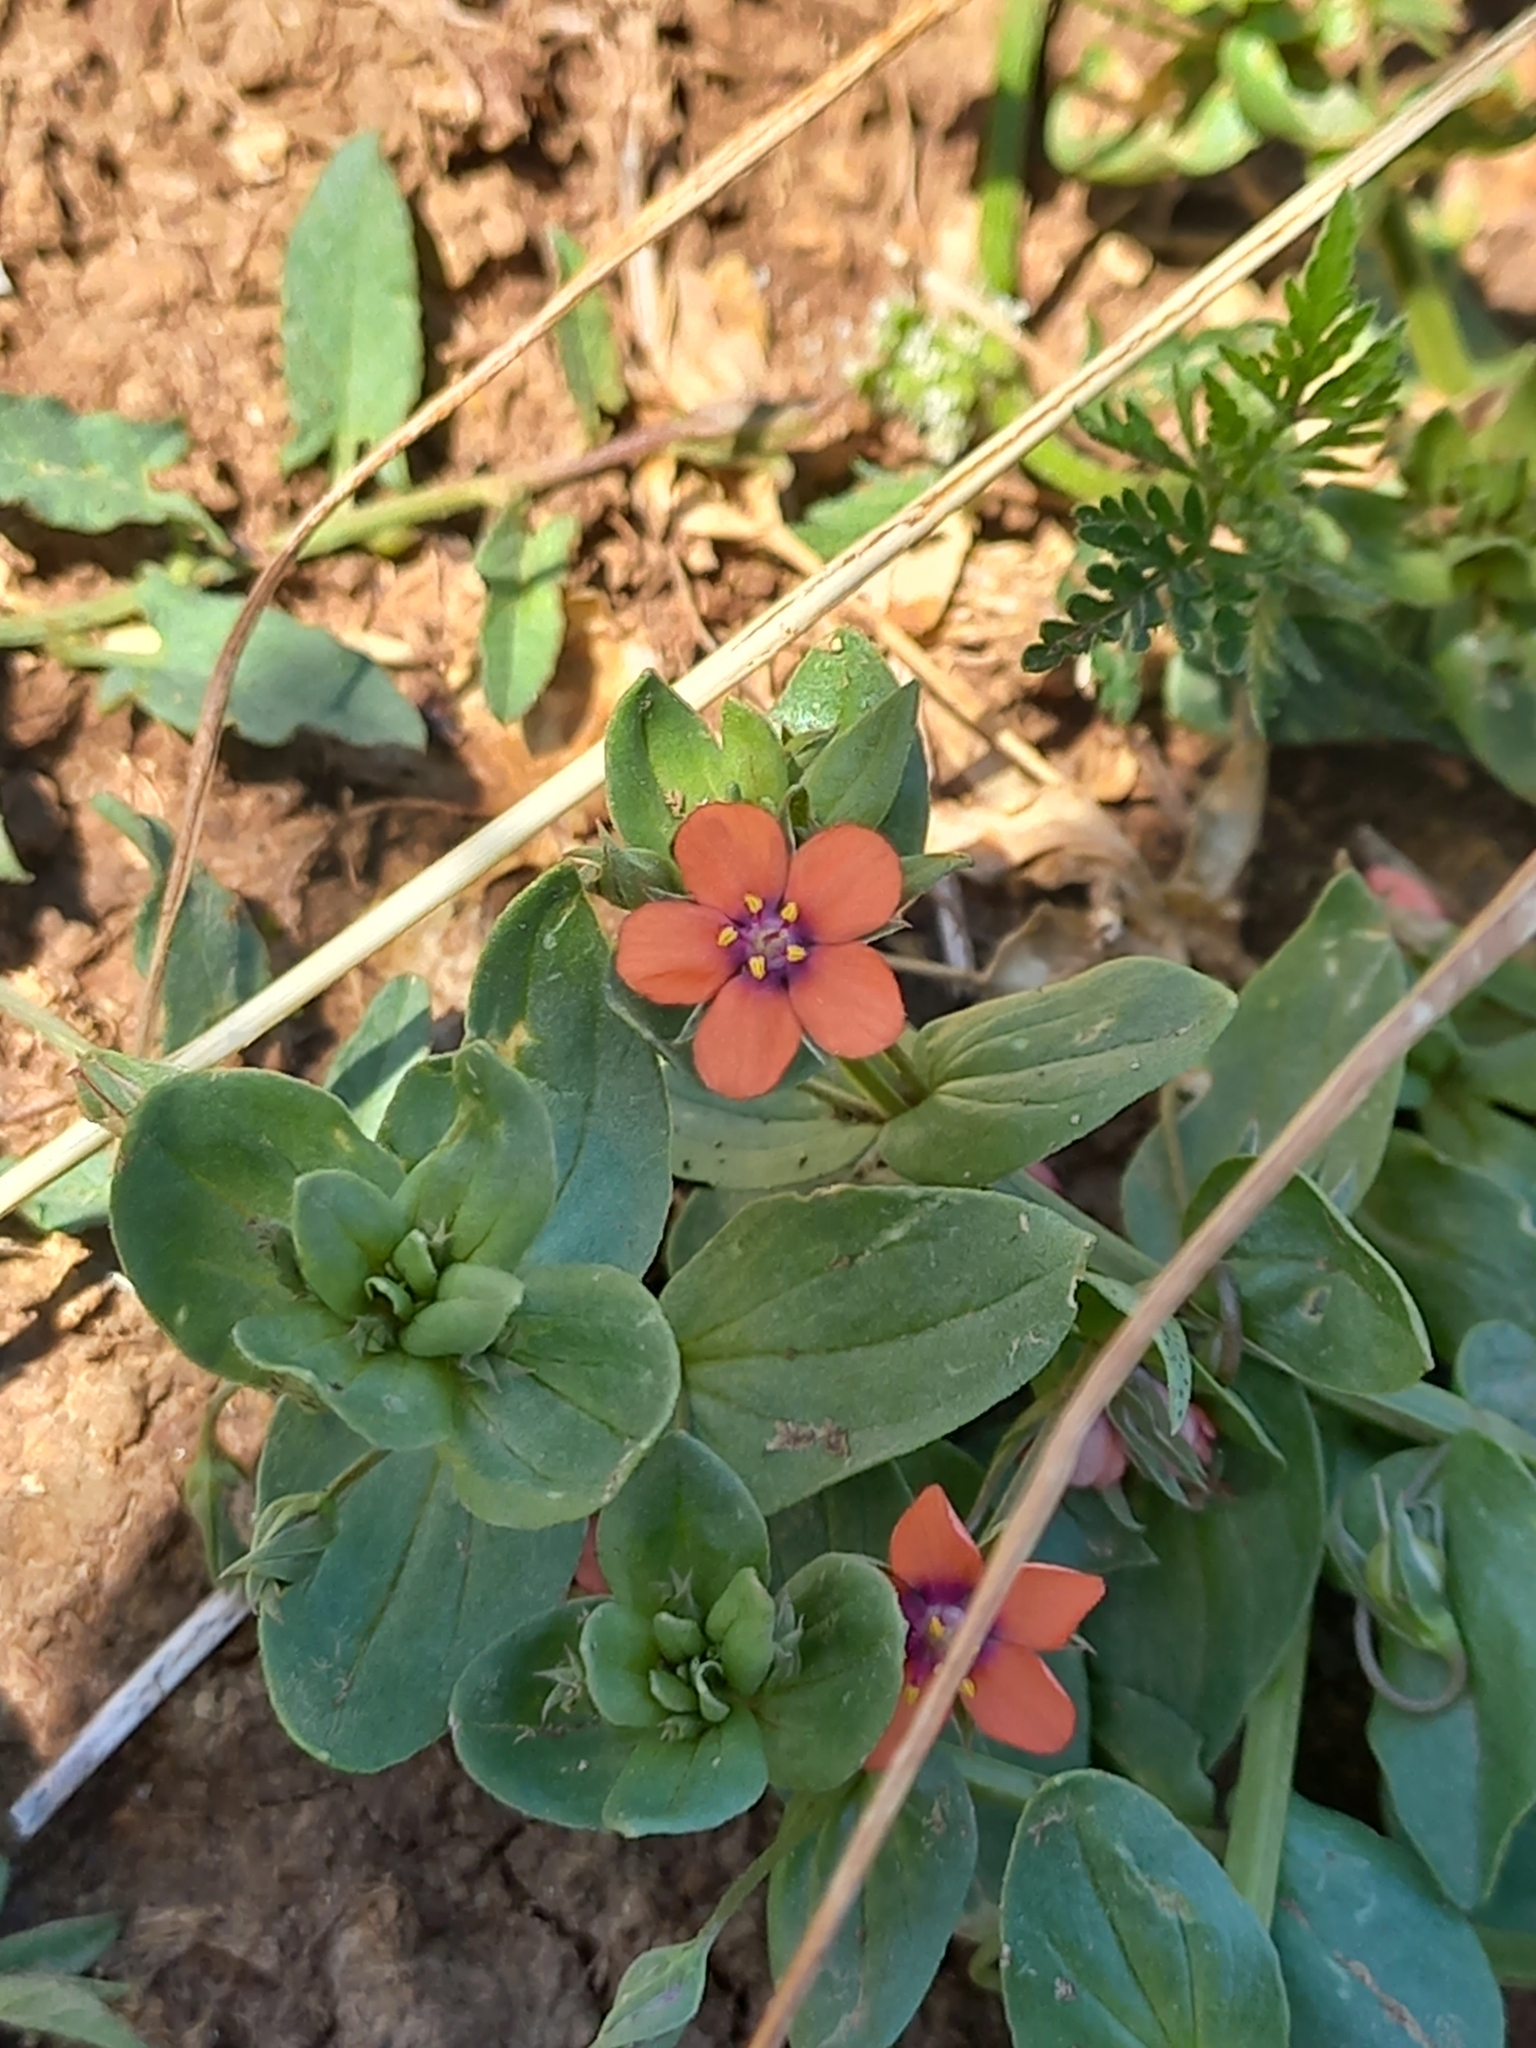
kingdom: Plantae
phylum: Tracheophyta
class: Magnoliopsida
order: Ericales
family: Primulaceae
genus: Lysimachia
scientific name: Lysimachia arvensis
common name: Scarlet pimpernel
